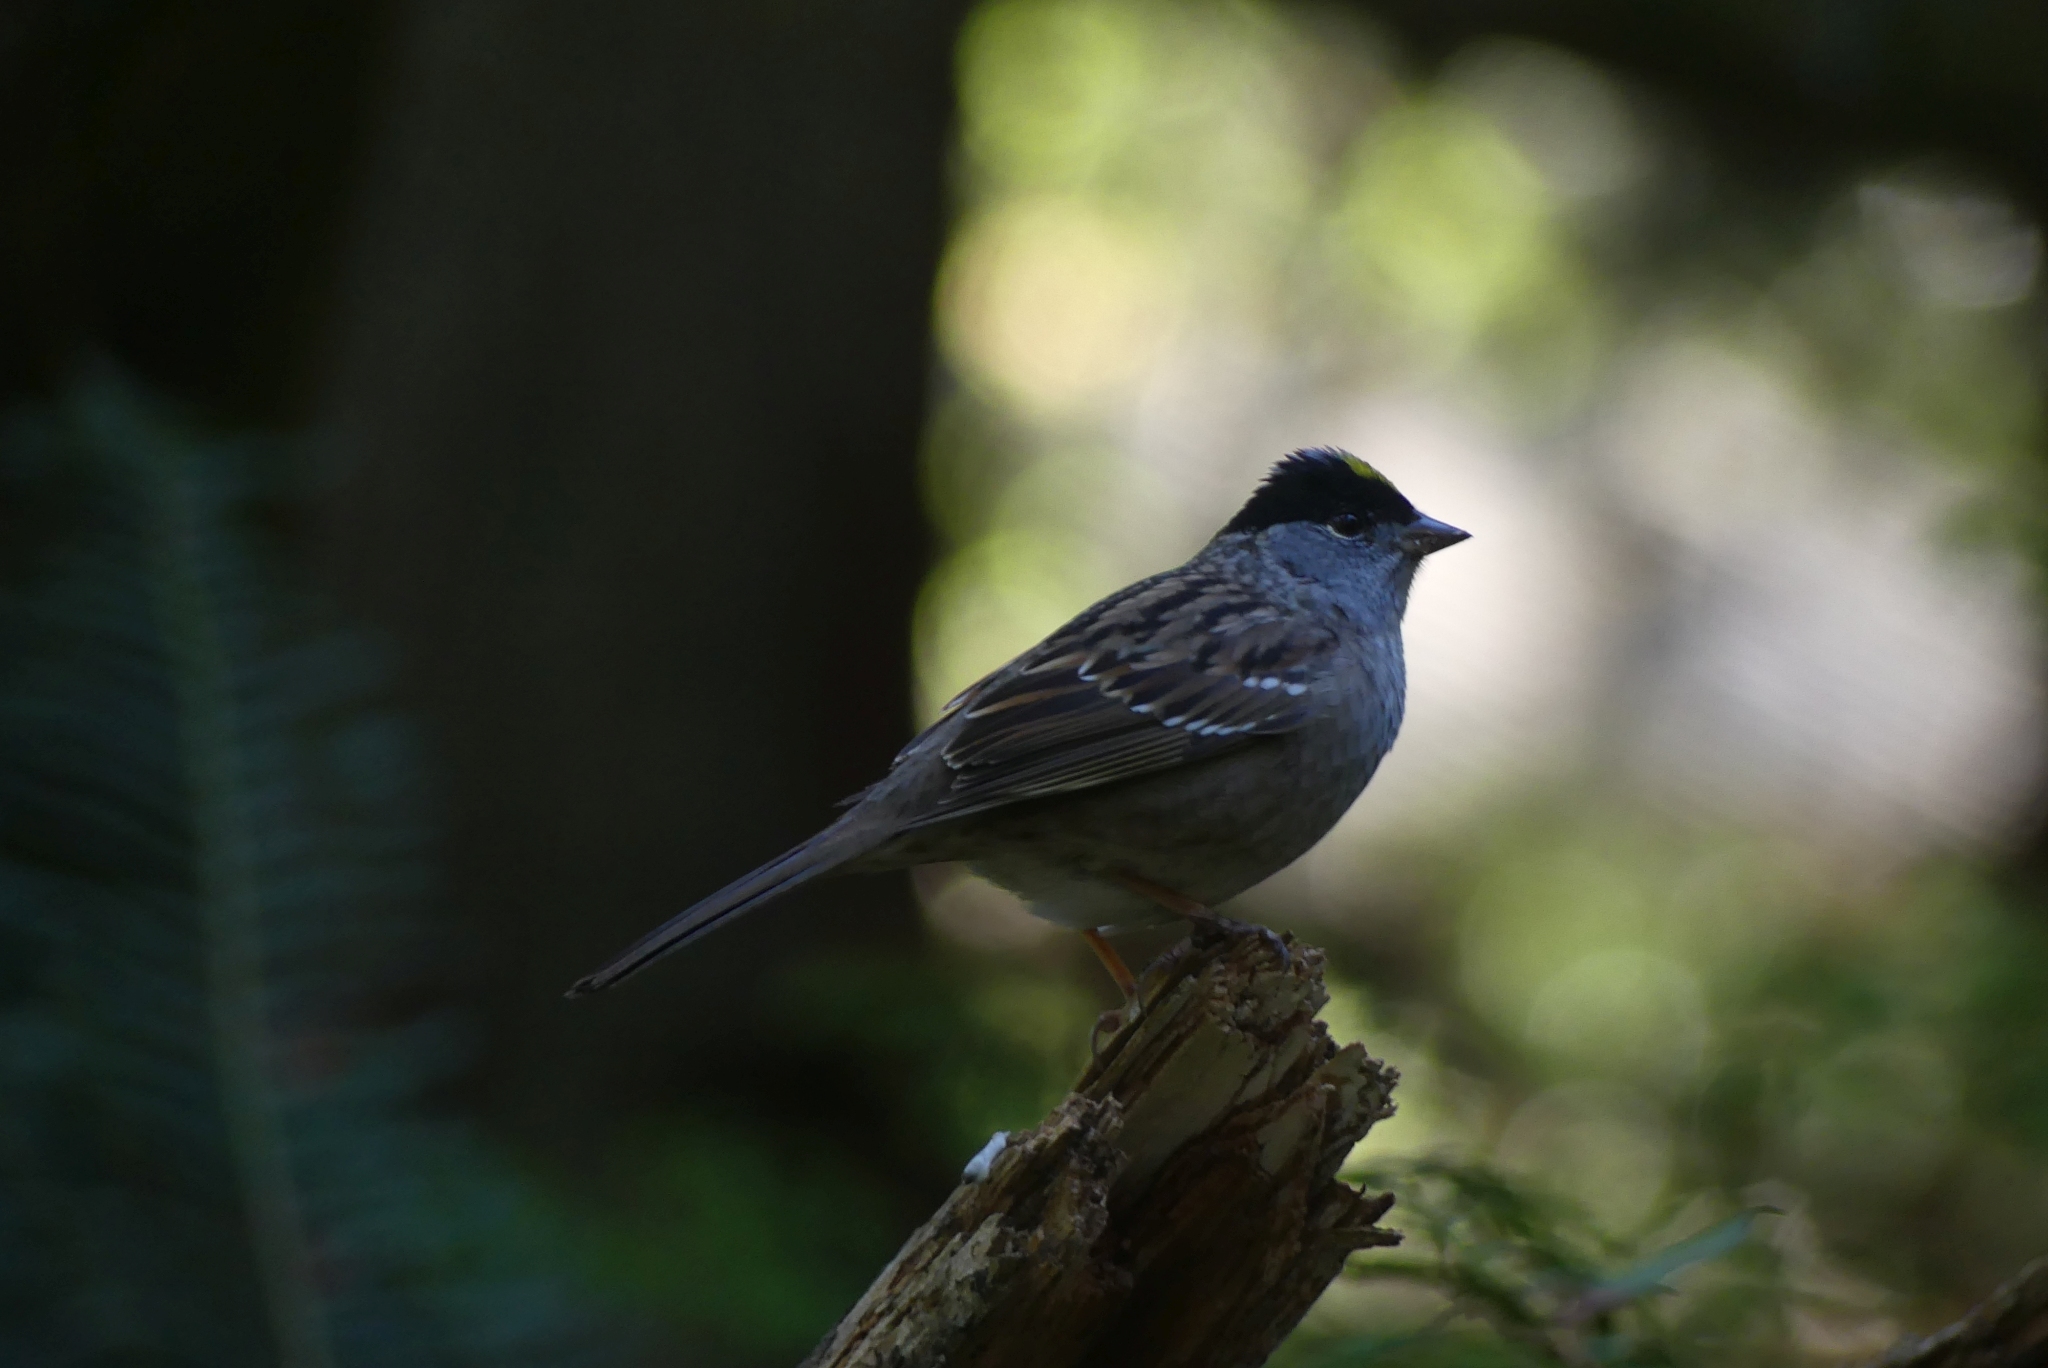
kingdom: Animalia
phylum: Chordata
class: Aves
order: Passeriformes
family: Passerellidae
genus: Zonotrichia
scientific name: Zonotrichia atricapilla
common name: Golden-crowned sparrow
